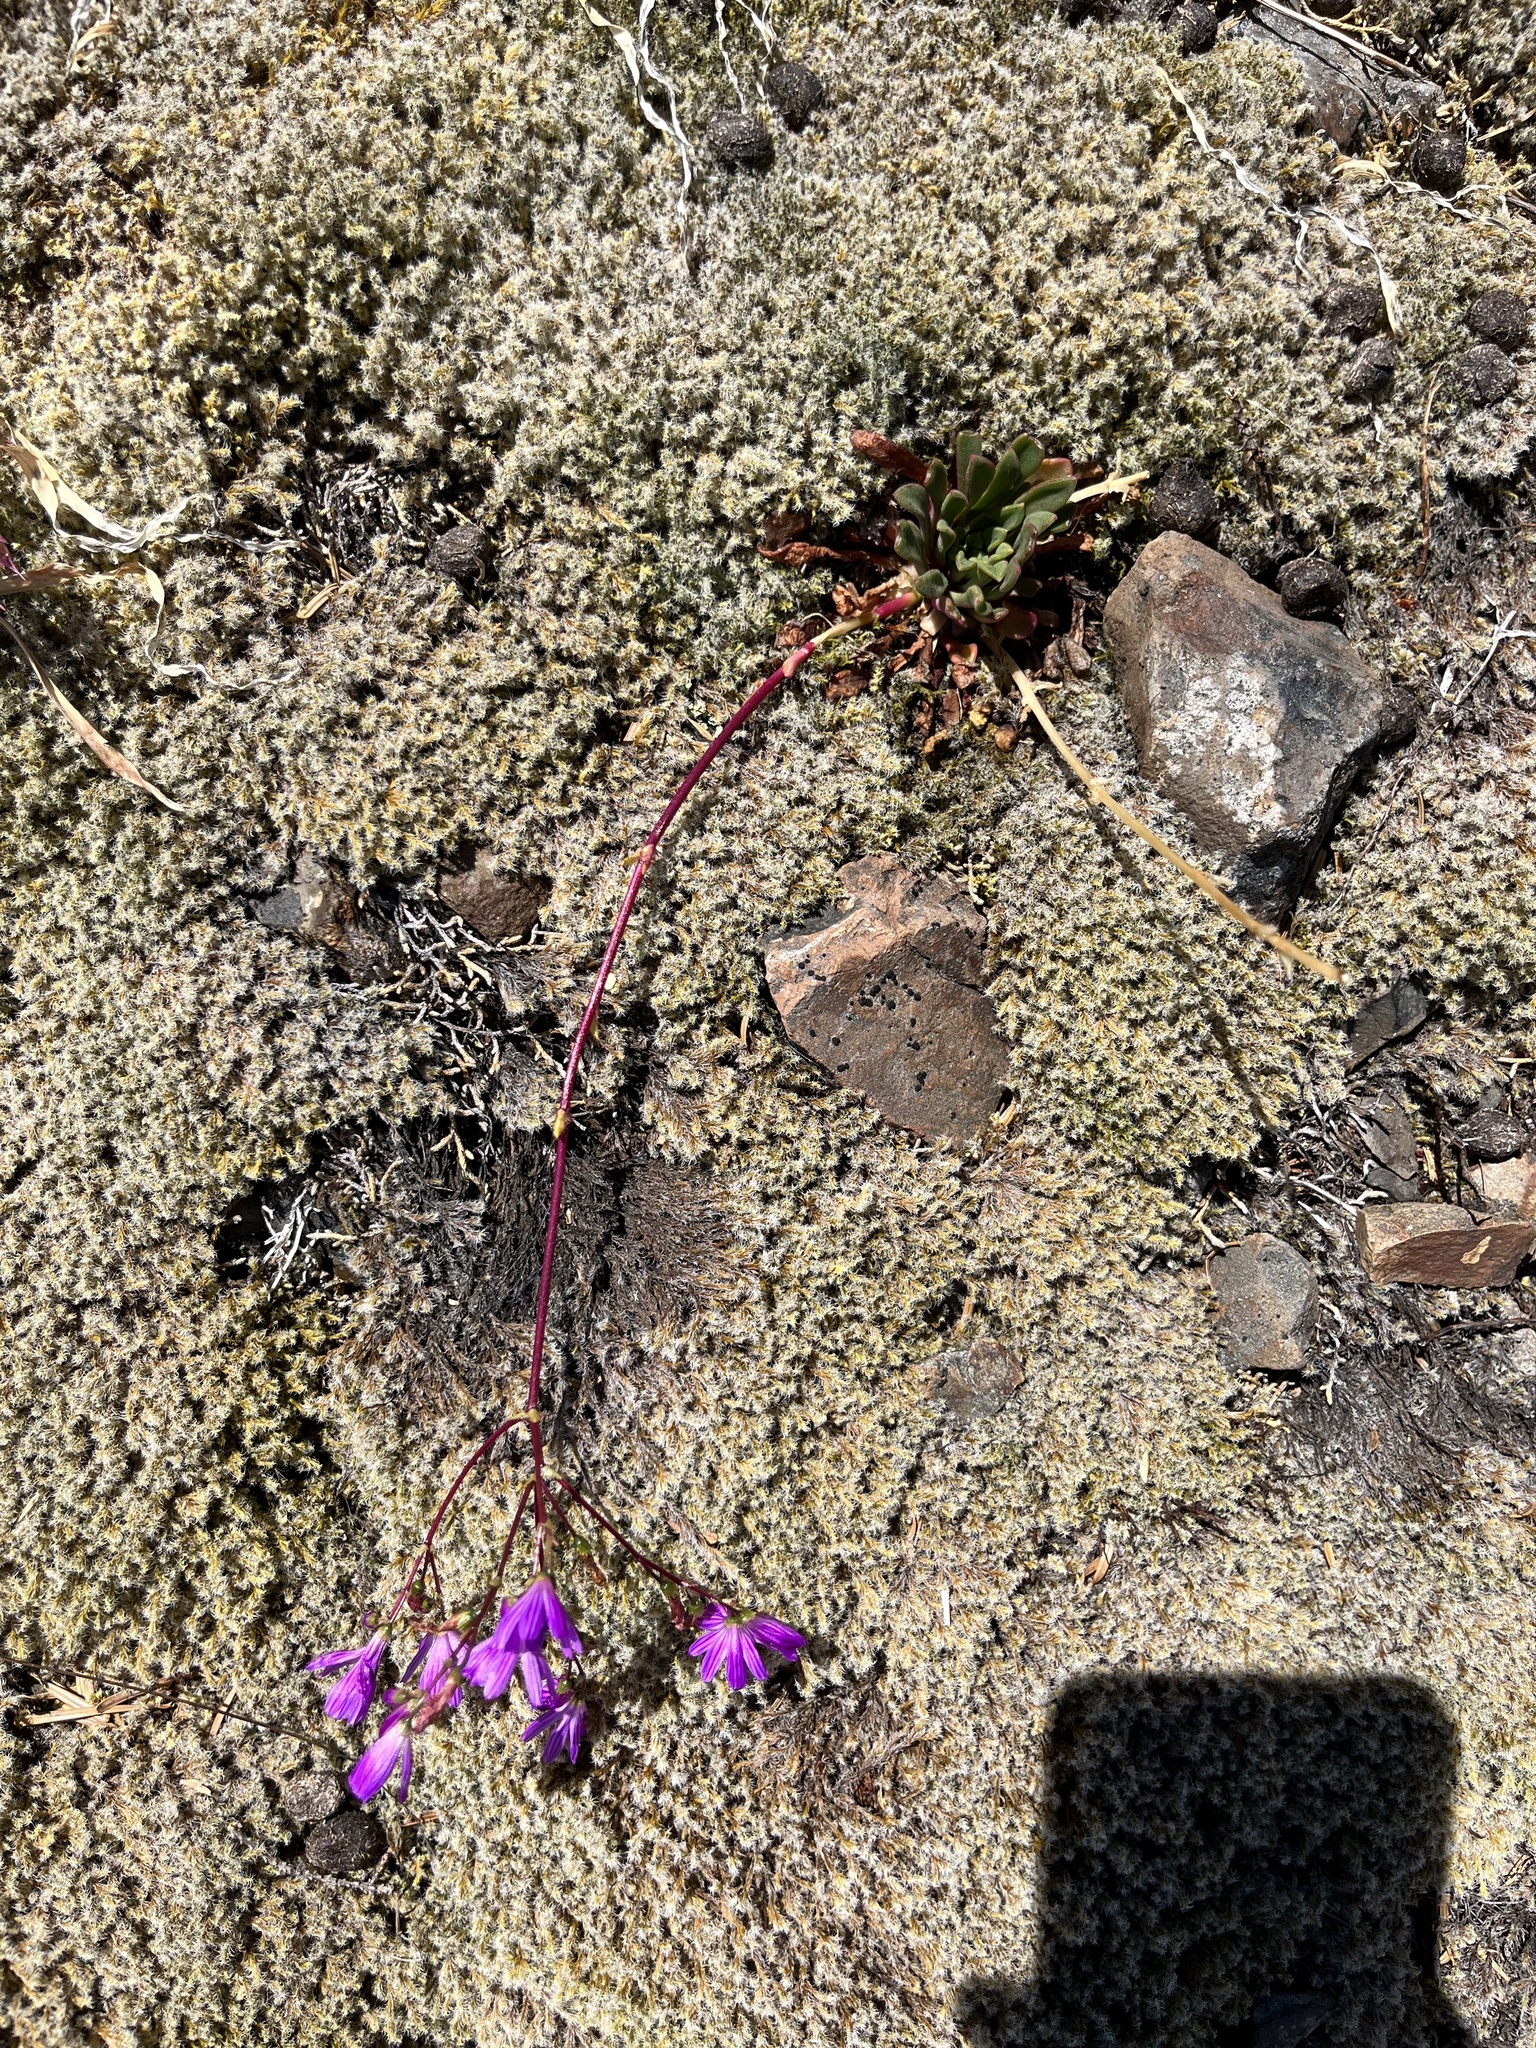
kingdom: Plantae
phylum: Tracheophyta
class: Magnoliopsida
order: Caryophyllales
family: Montiaceae
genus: Lewisia
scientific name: Lewisia columbiana
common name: Columbia lewisia
